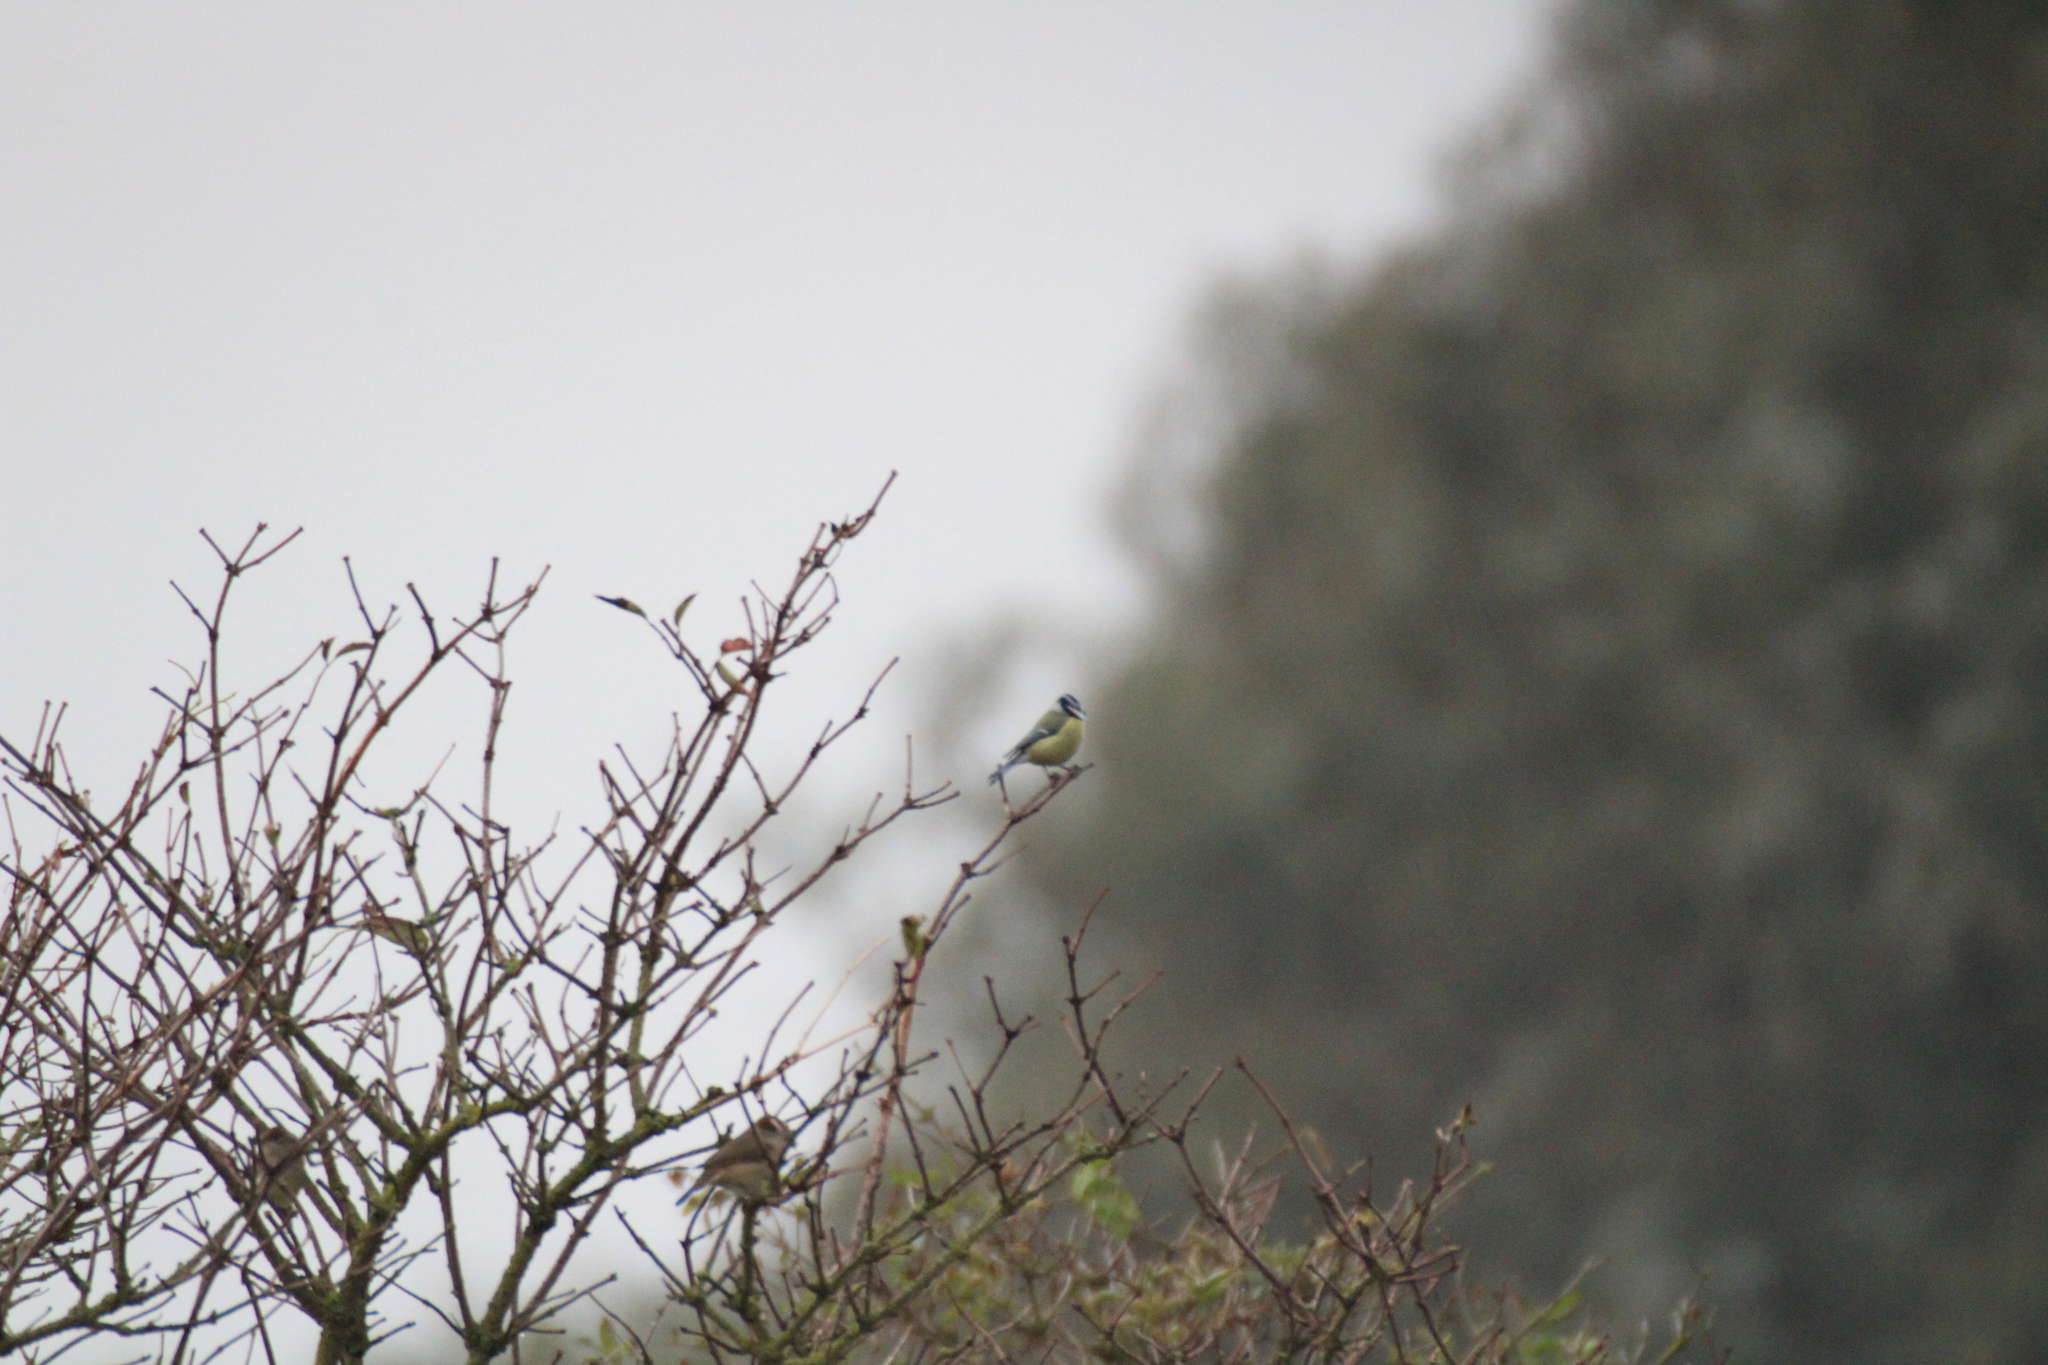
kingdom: Animalia
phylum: Chordata
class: Aves
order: Passeriformes
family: Paridae
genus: Cyanistes
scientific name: Cyanistes caeruleus
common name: Eurasian blue tit
